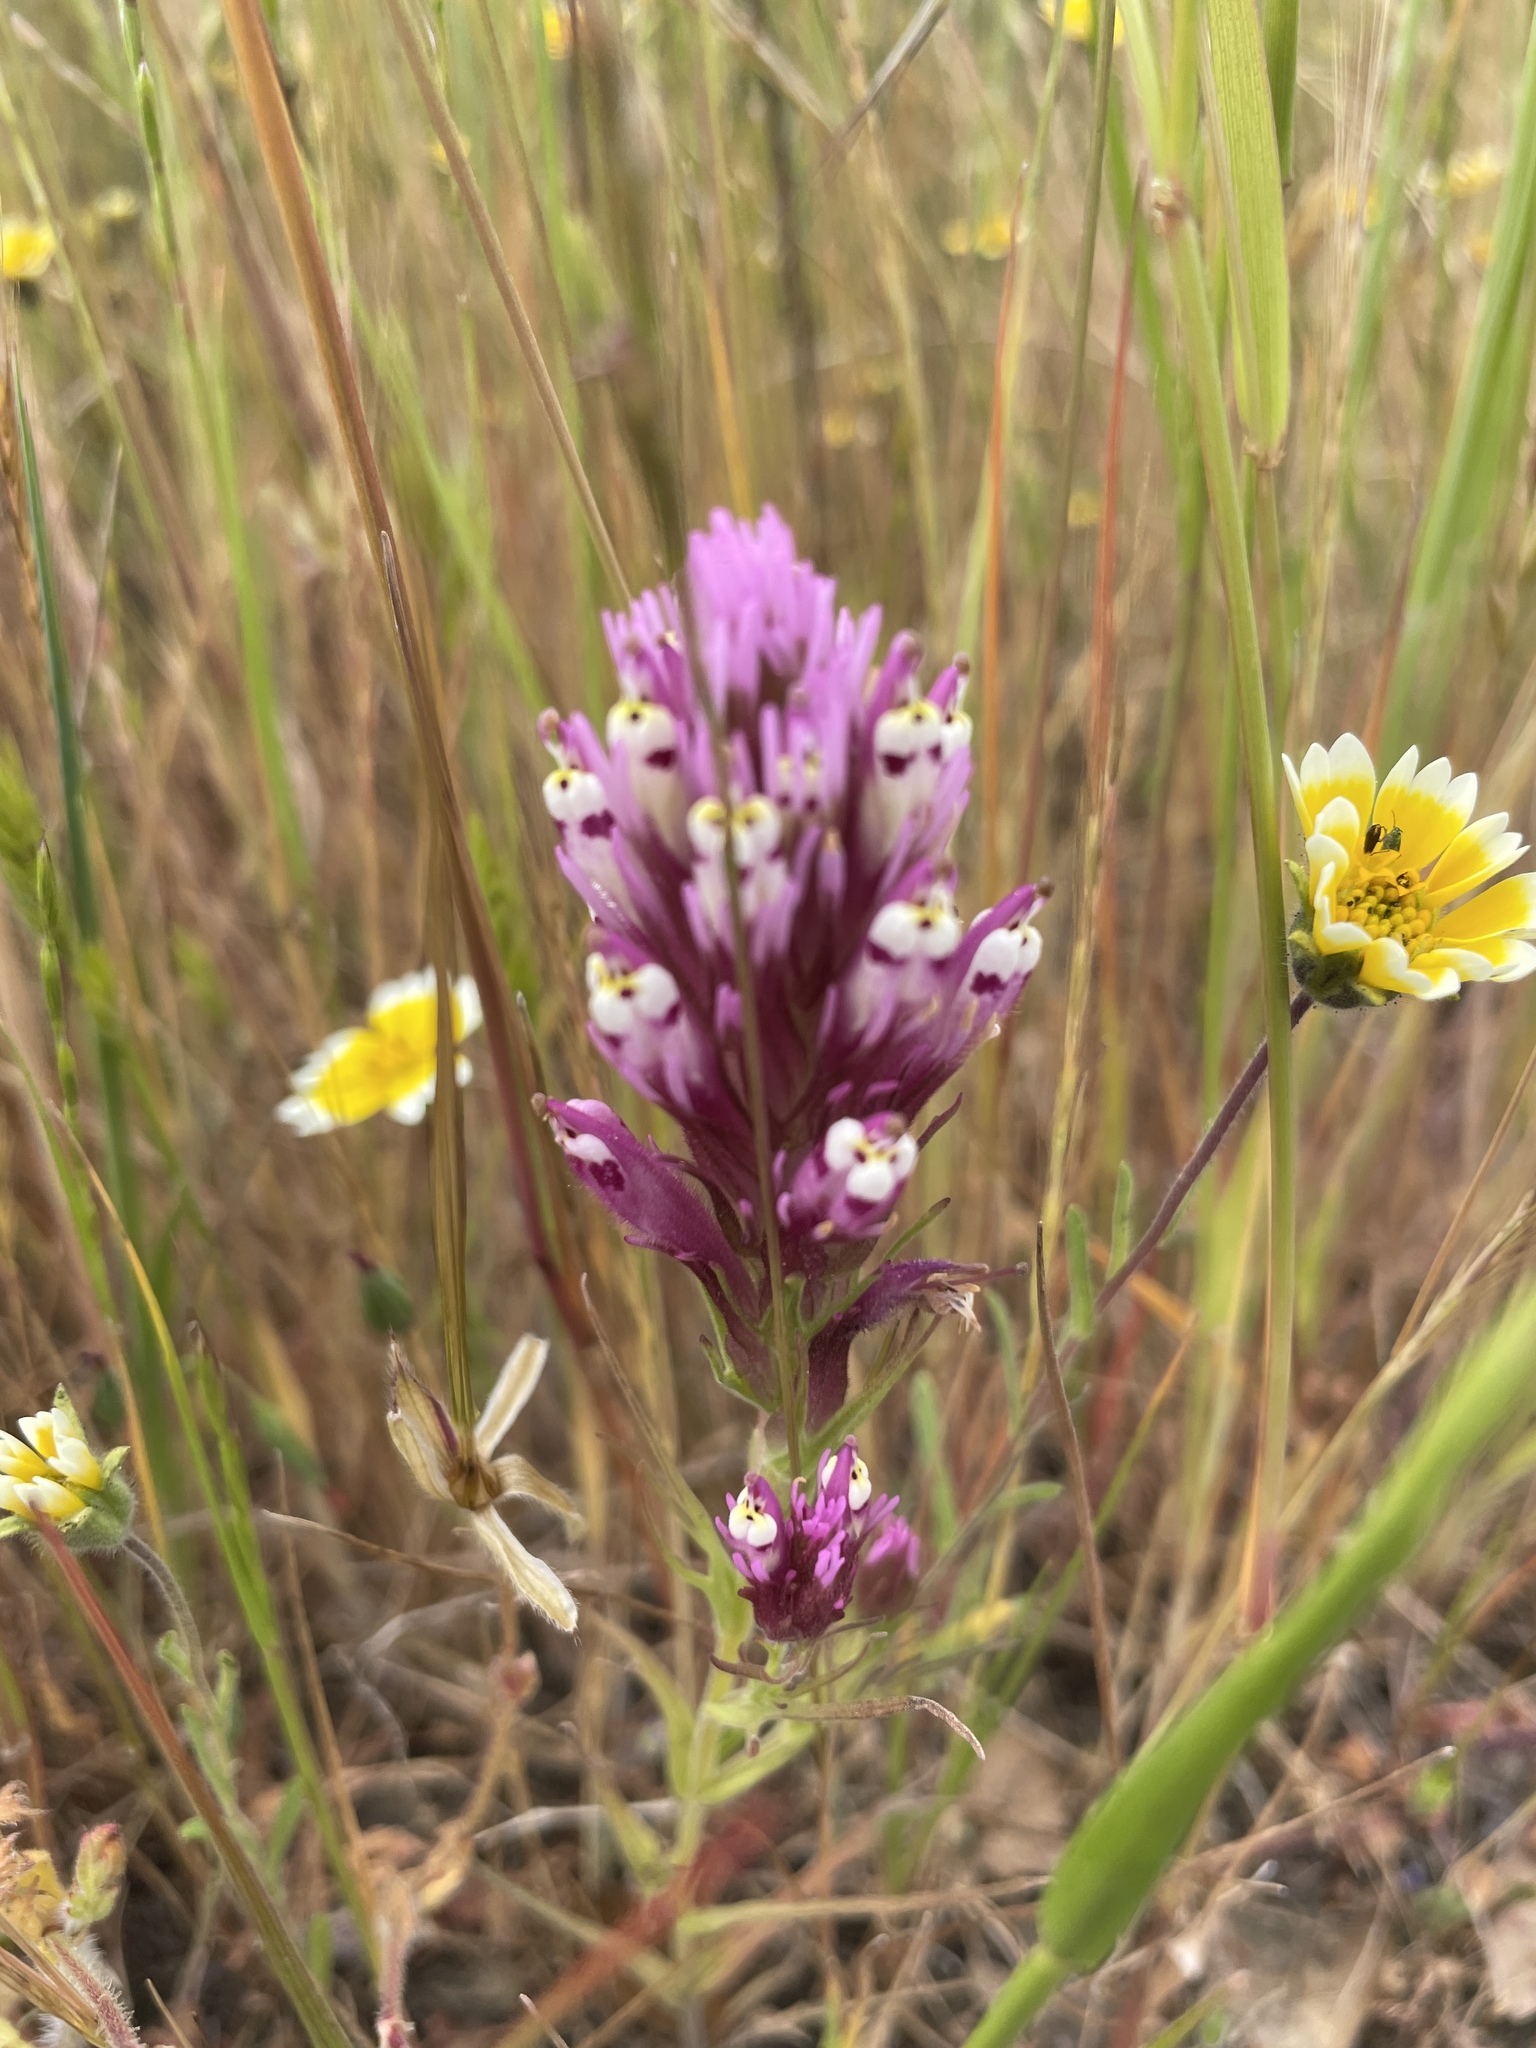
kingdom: Plantae
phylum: Tracheophyta
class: Magnoliopsida
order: Lamiales
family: Orobanchaceae
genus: Castilleja
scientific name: Castilleja densiflora
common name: Dense-flower indian paintbrush
